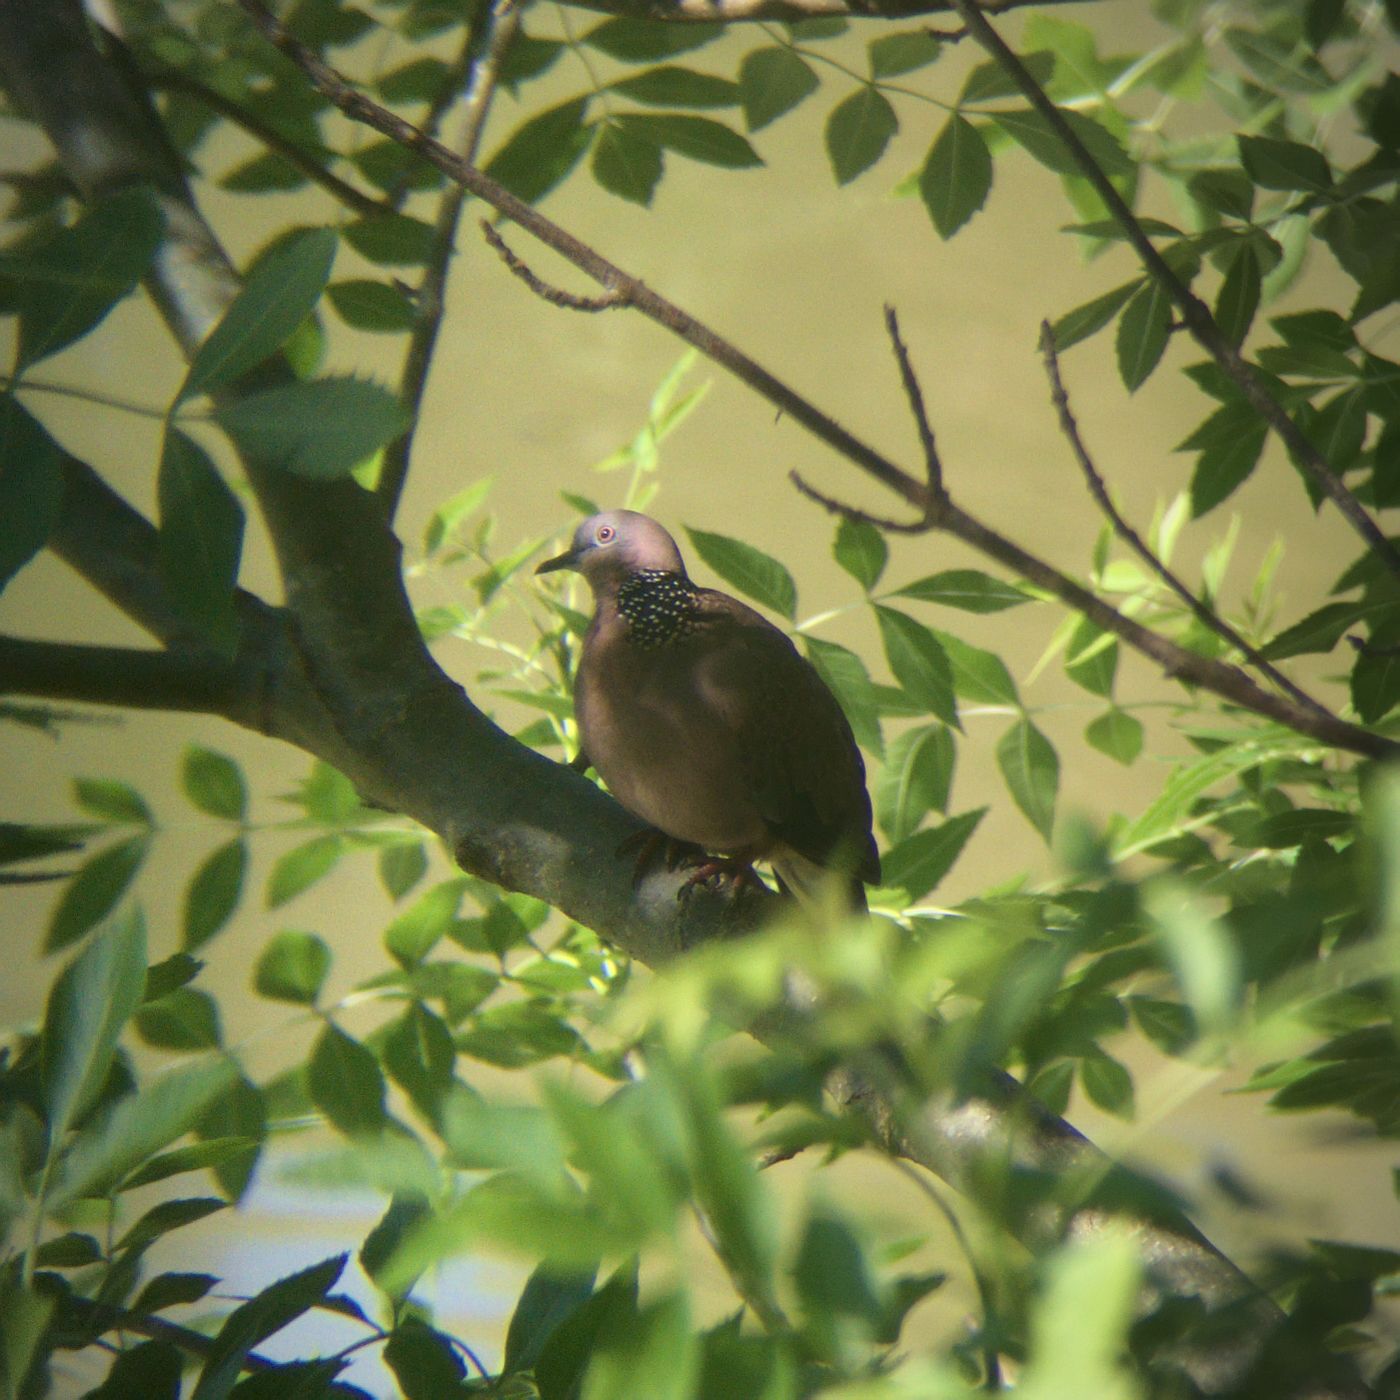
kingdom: Animalia
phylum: Chordata
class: Aves
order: Columbiformes
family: Columbidae
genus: Spilopelia
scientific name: Spilopelia chinensis
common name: Spotted dove
